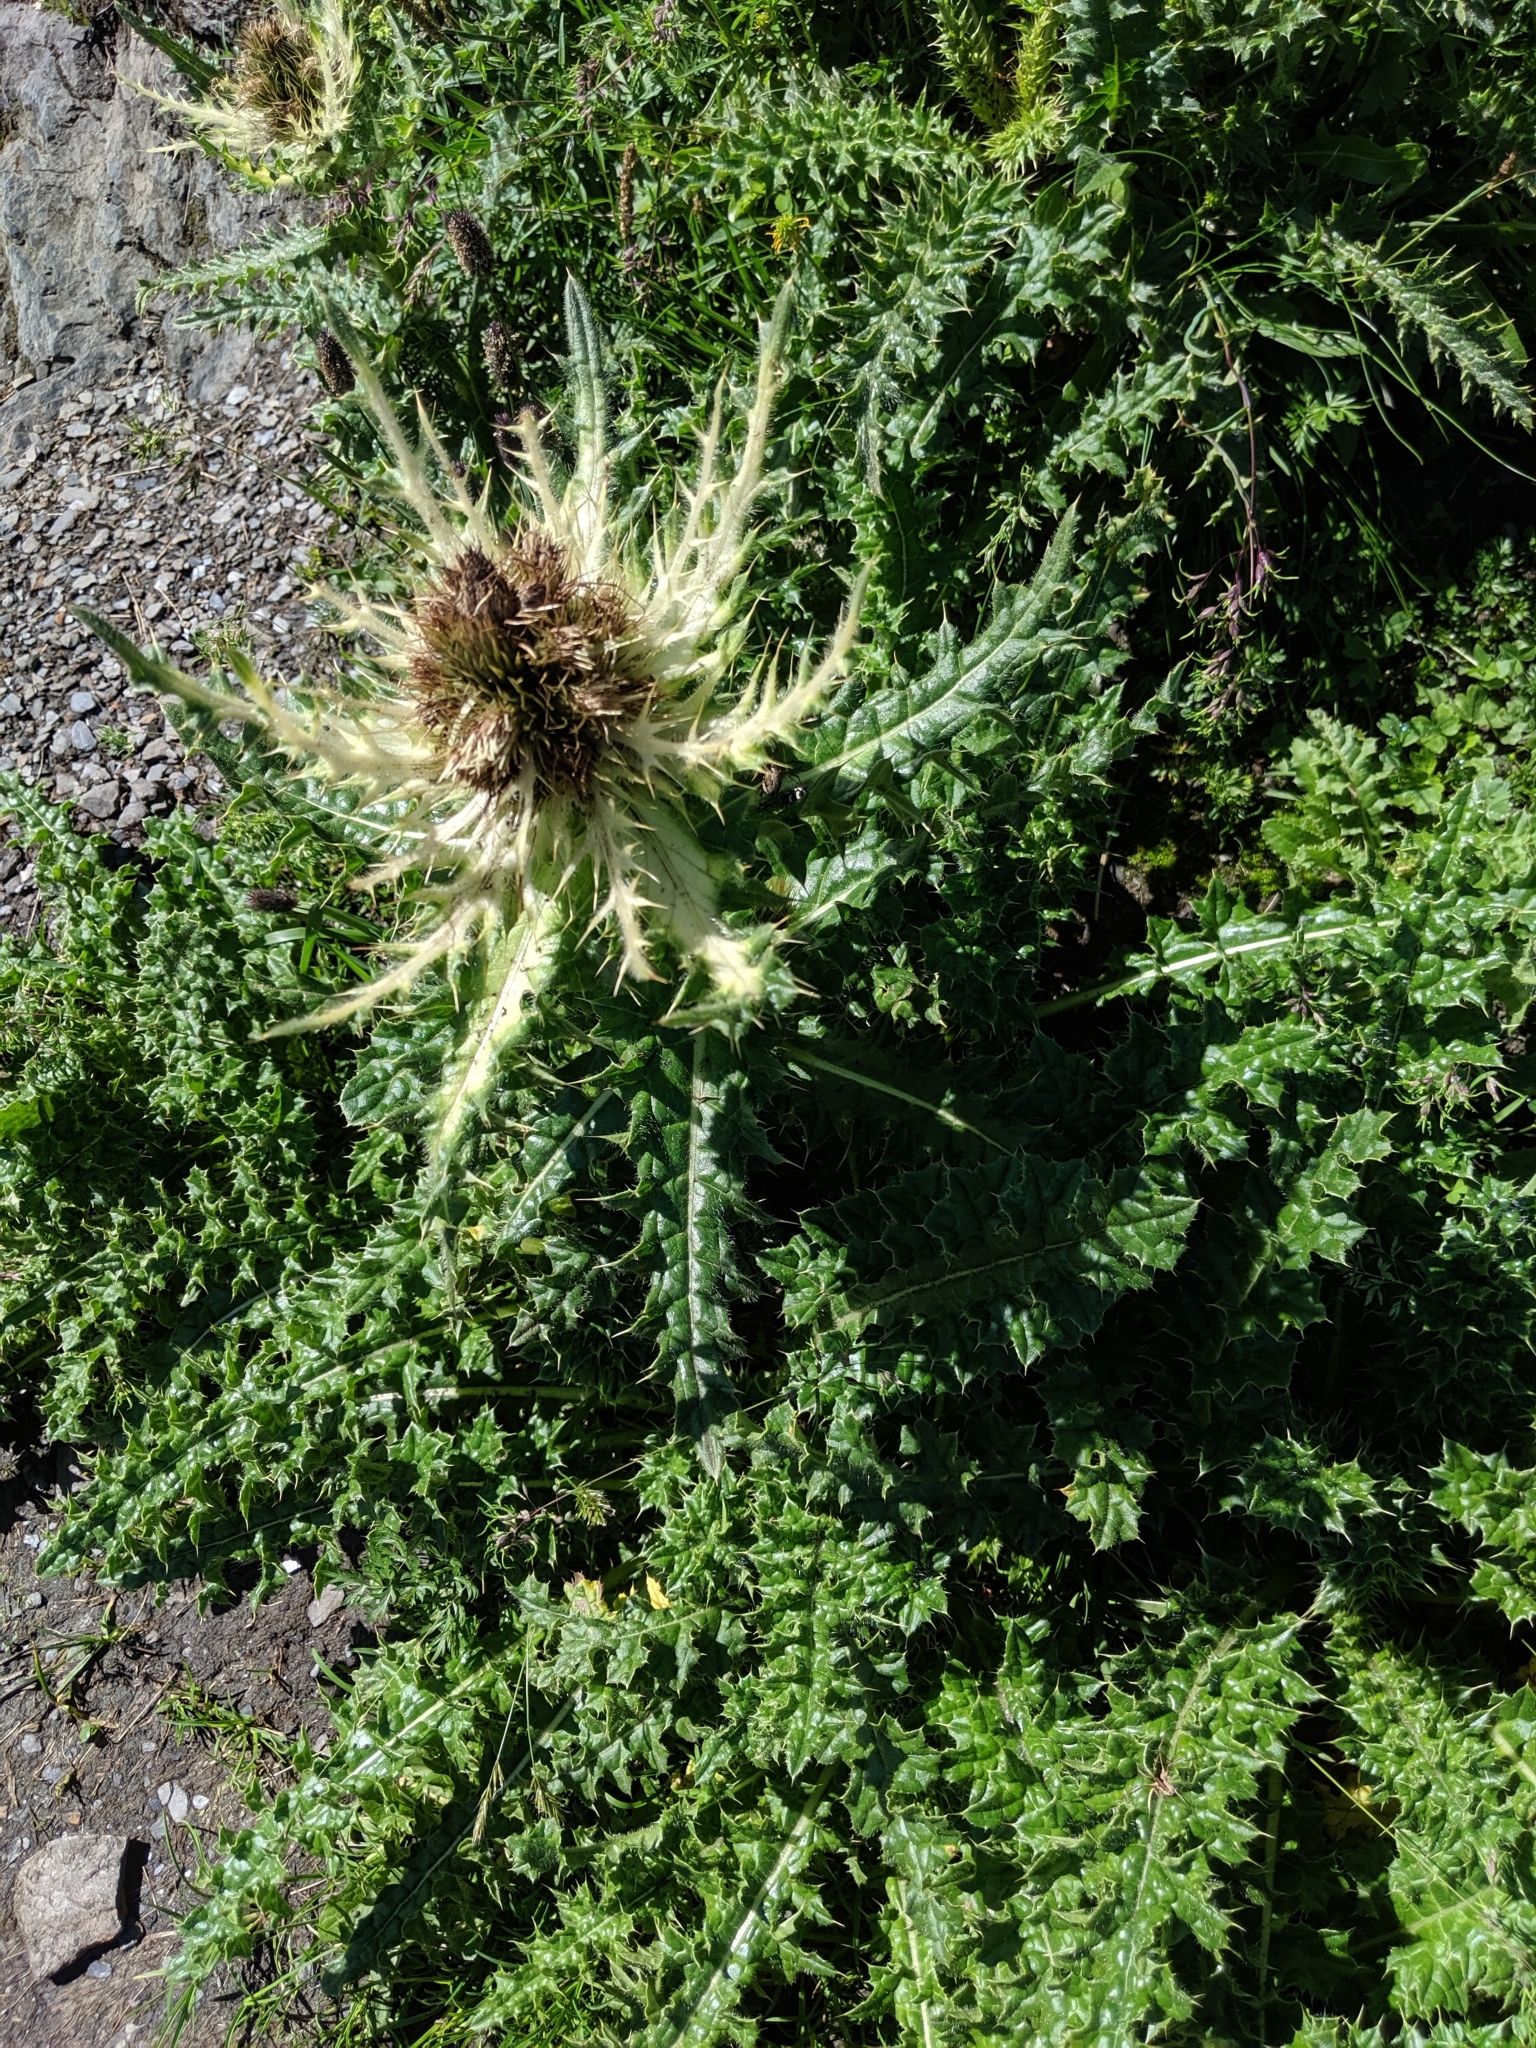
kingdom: Plantae
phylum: Tracheophyta
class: Magnoliopsida
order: Asterales
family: Asteraceae
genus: Cirsium
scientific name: Cirsium spinosissimum
